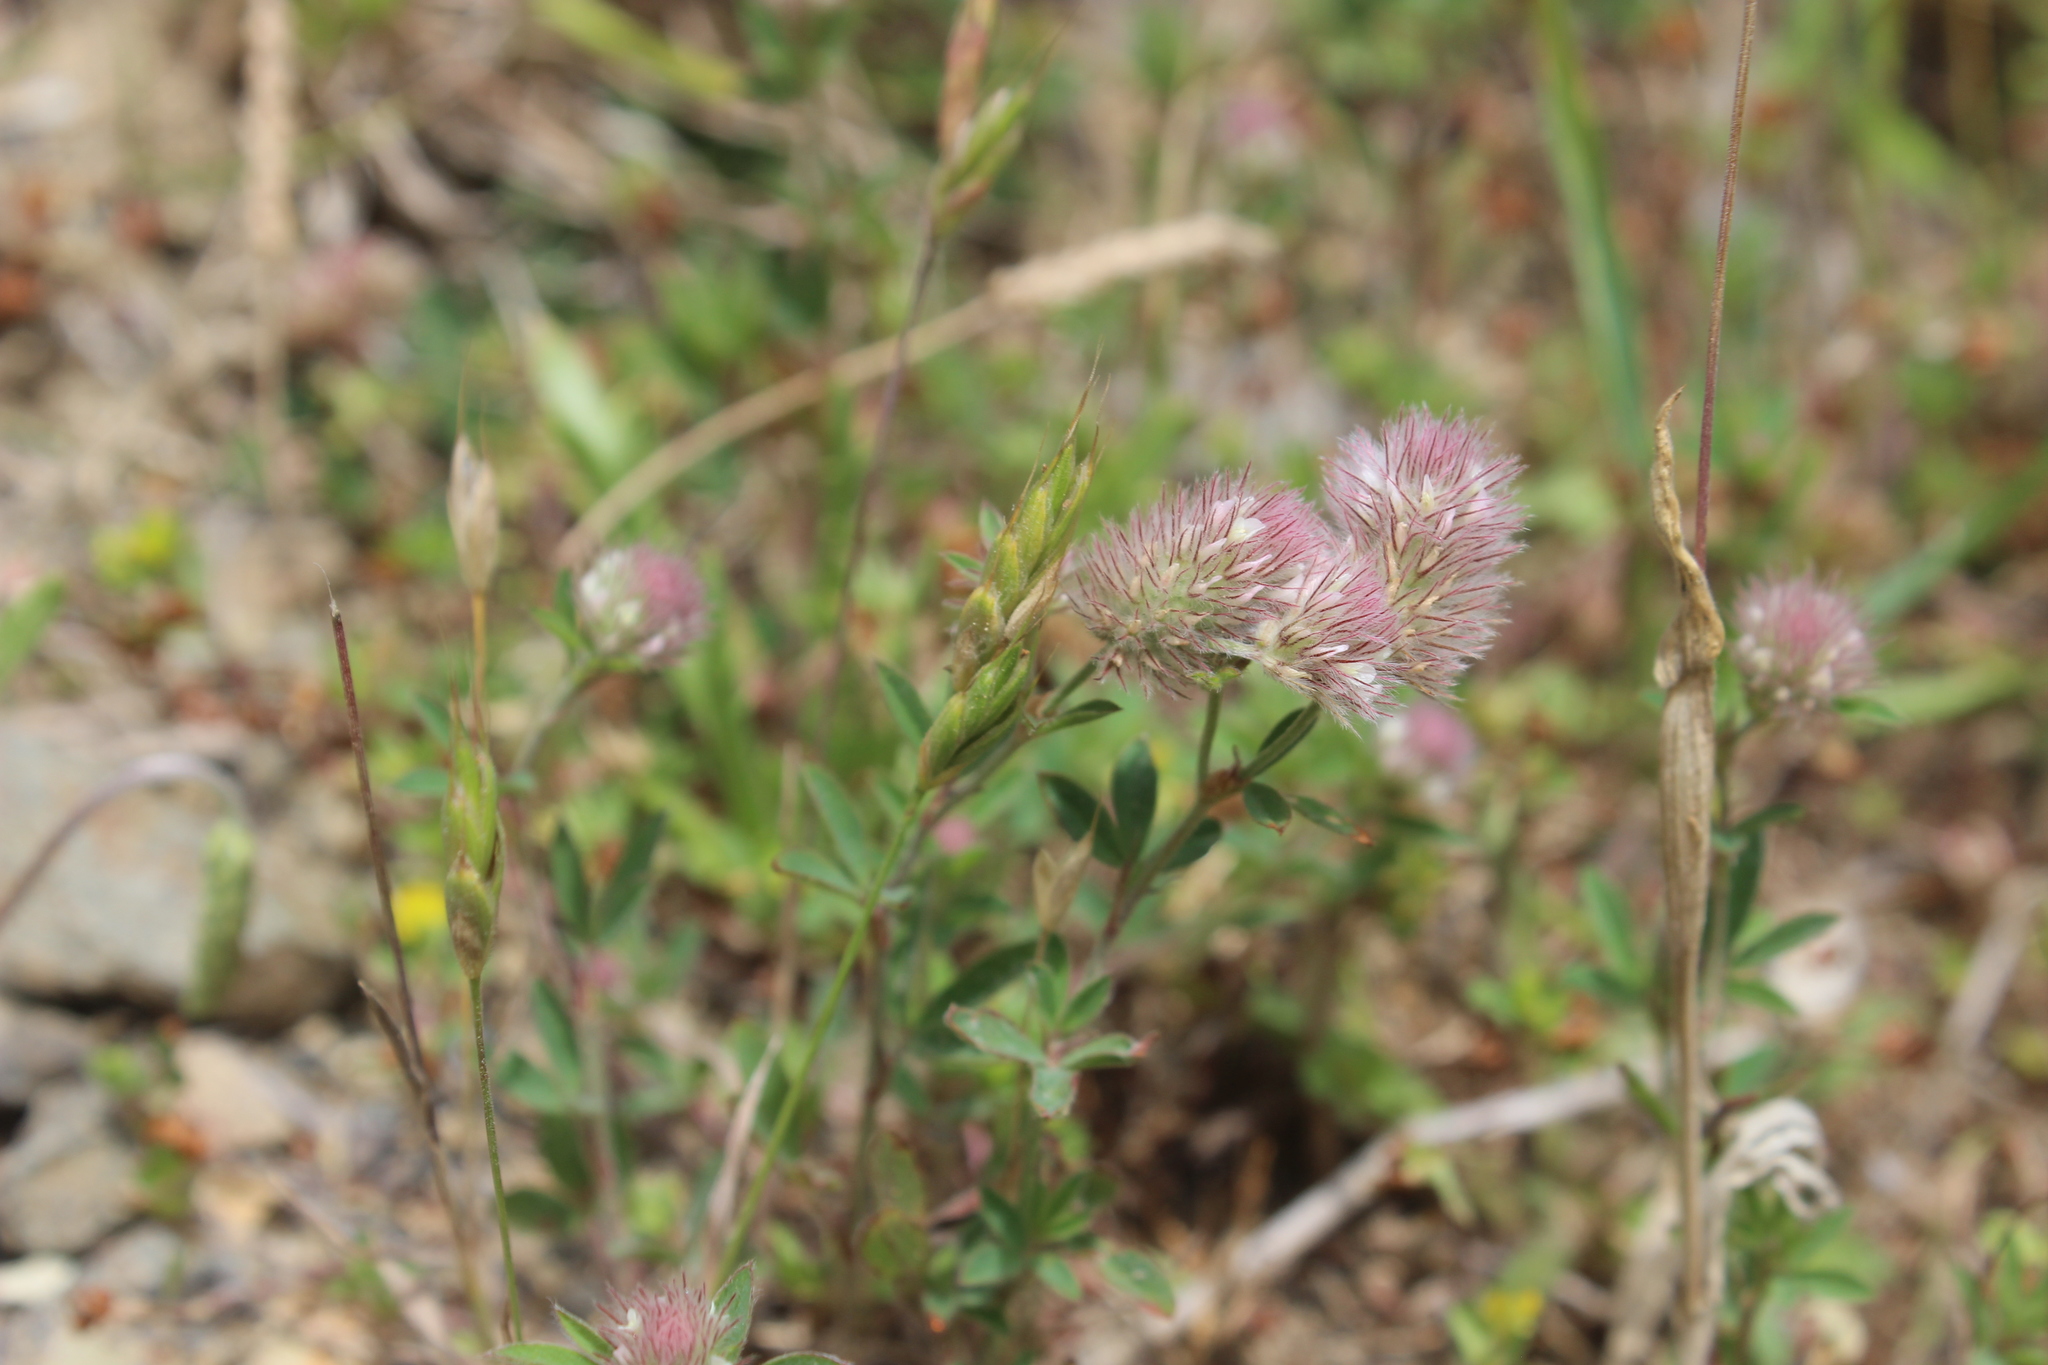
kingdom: Plantae
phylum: Tracheophyta
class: Magnoliopsida
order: Fabales
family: Fabaceae
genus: Trifolium
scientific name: Trifolium arvense
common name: Hare's-foot clover
